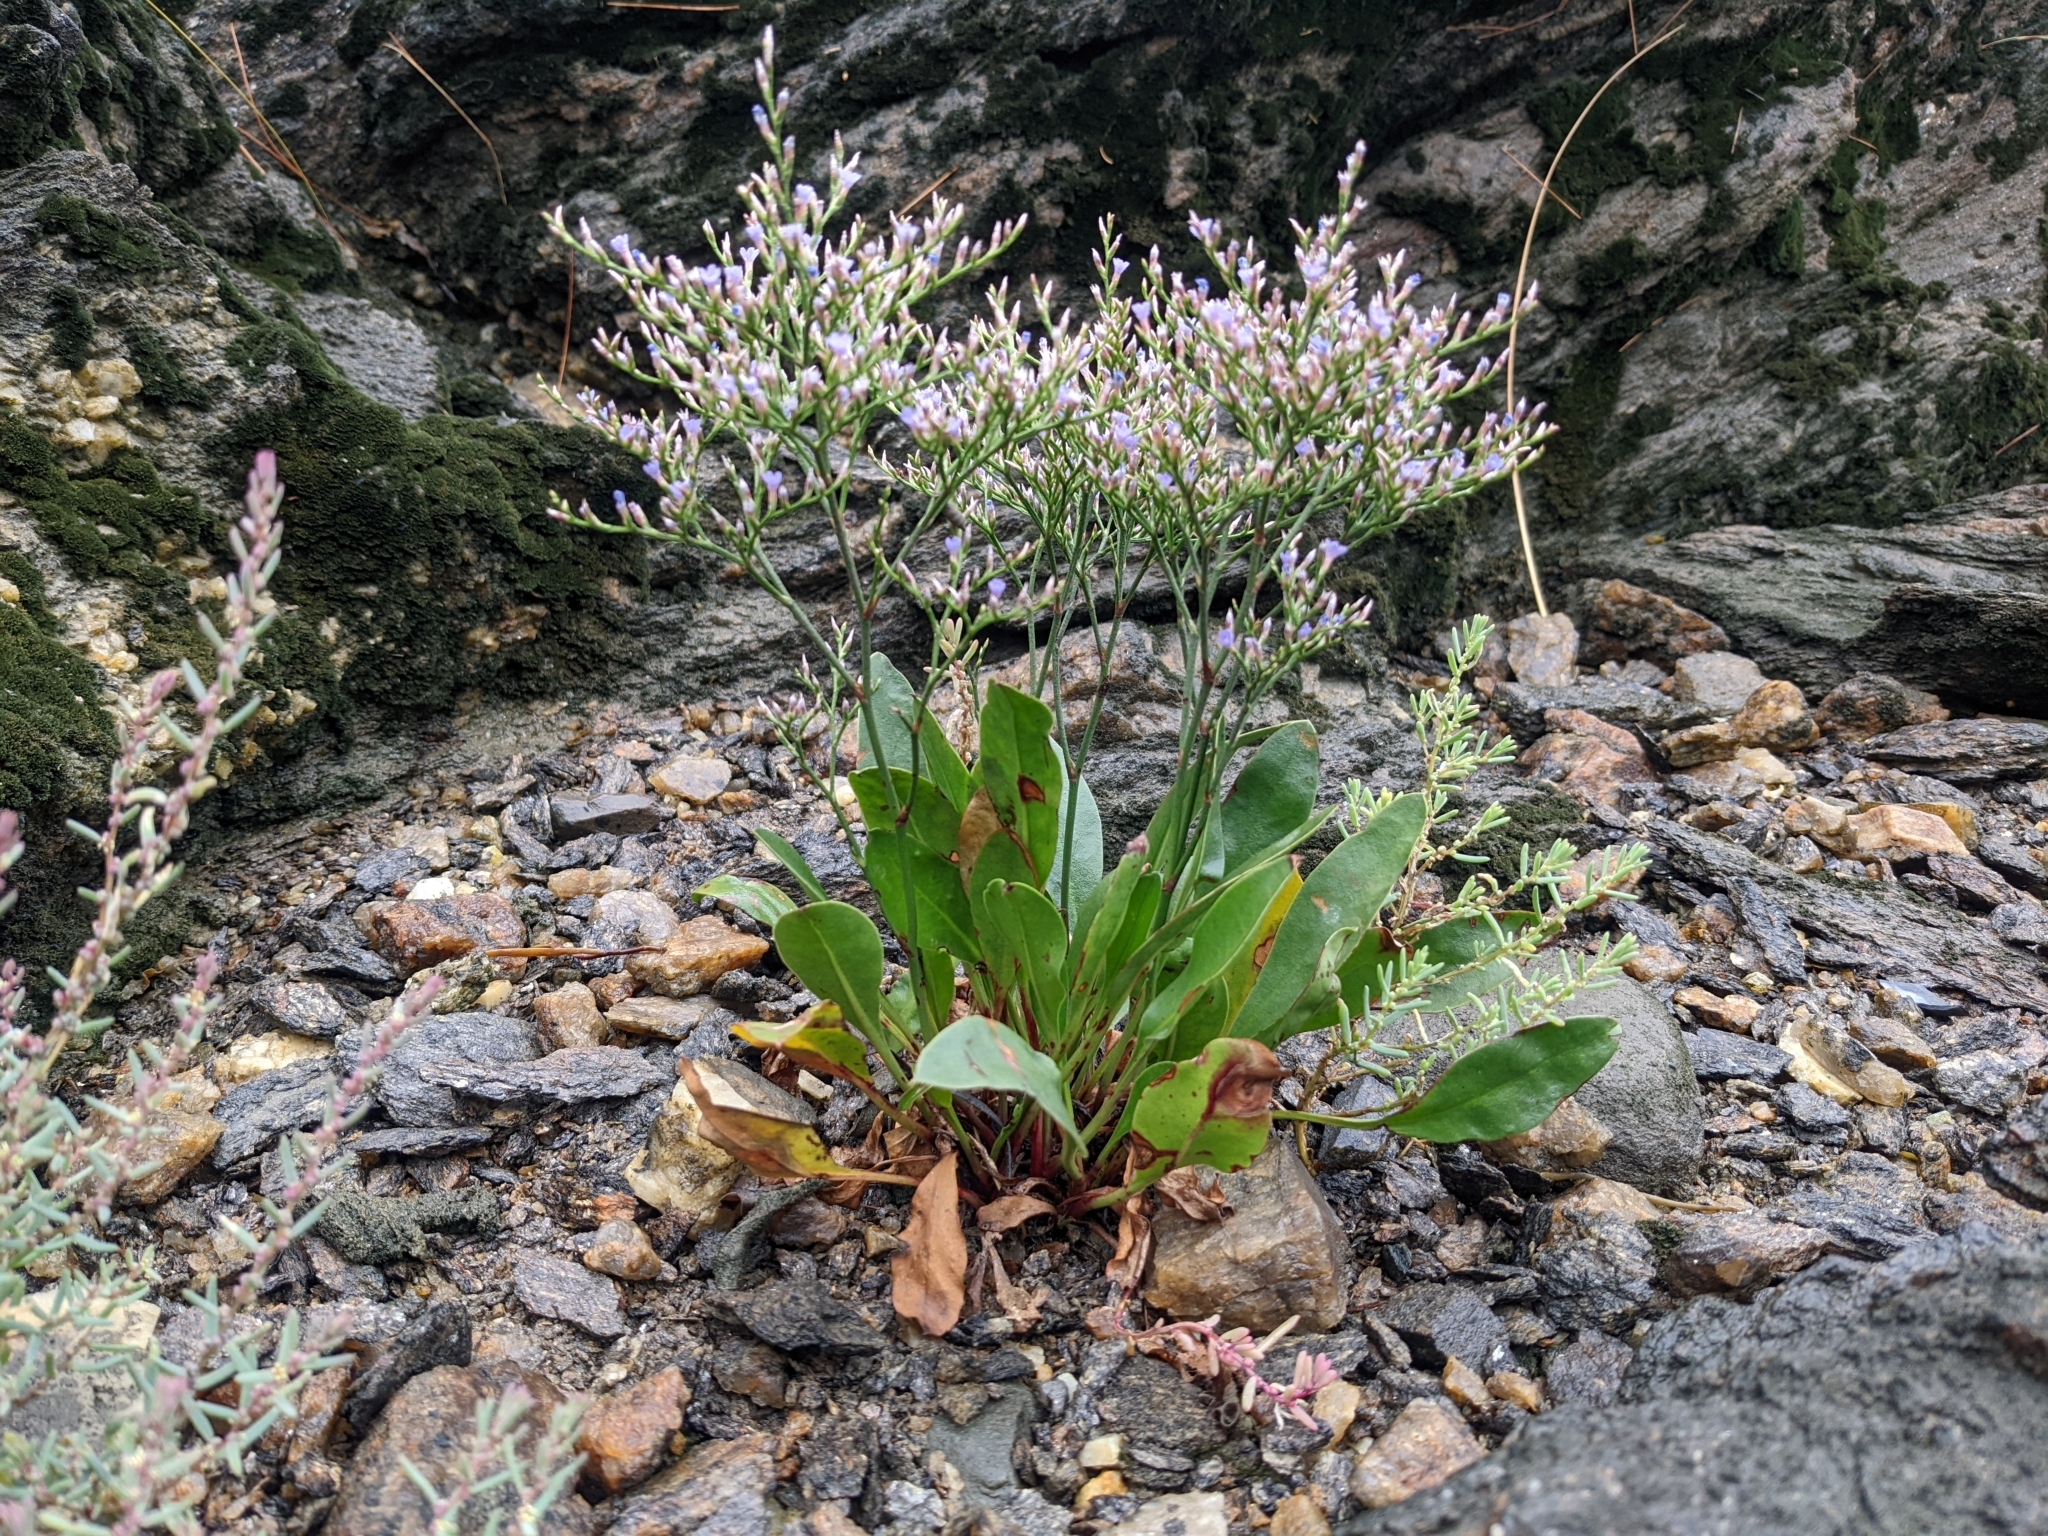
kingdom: Plantae
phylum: Tracheophyta
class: Magnoliopsida
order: Caryophyllales
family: Plumbaginaceae
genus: Limonium
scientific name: Limonium carolinianum
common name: Carolina sea lavender
